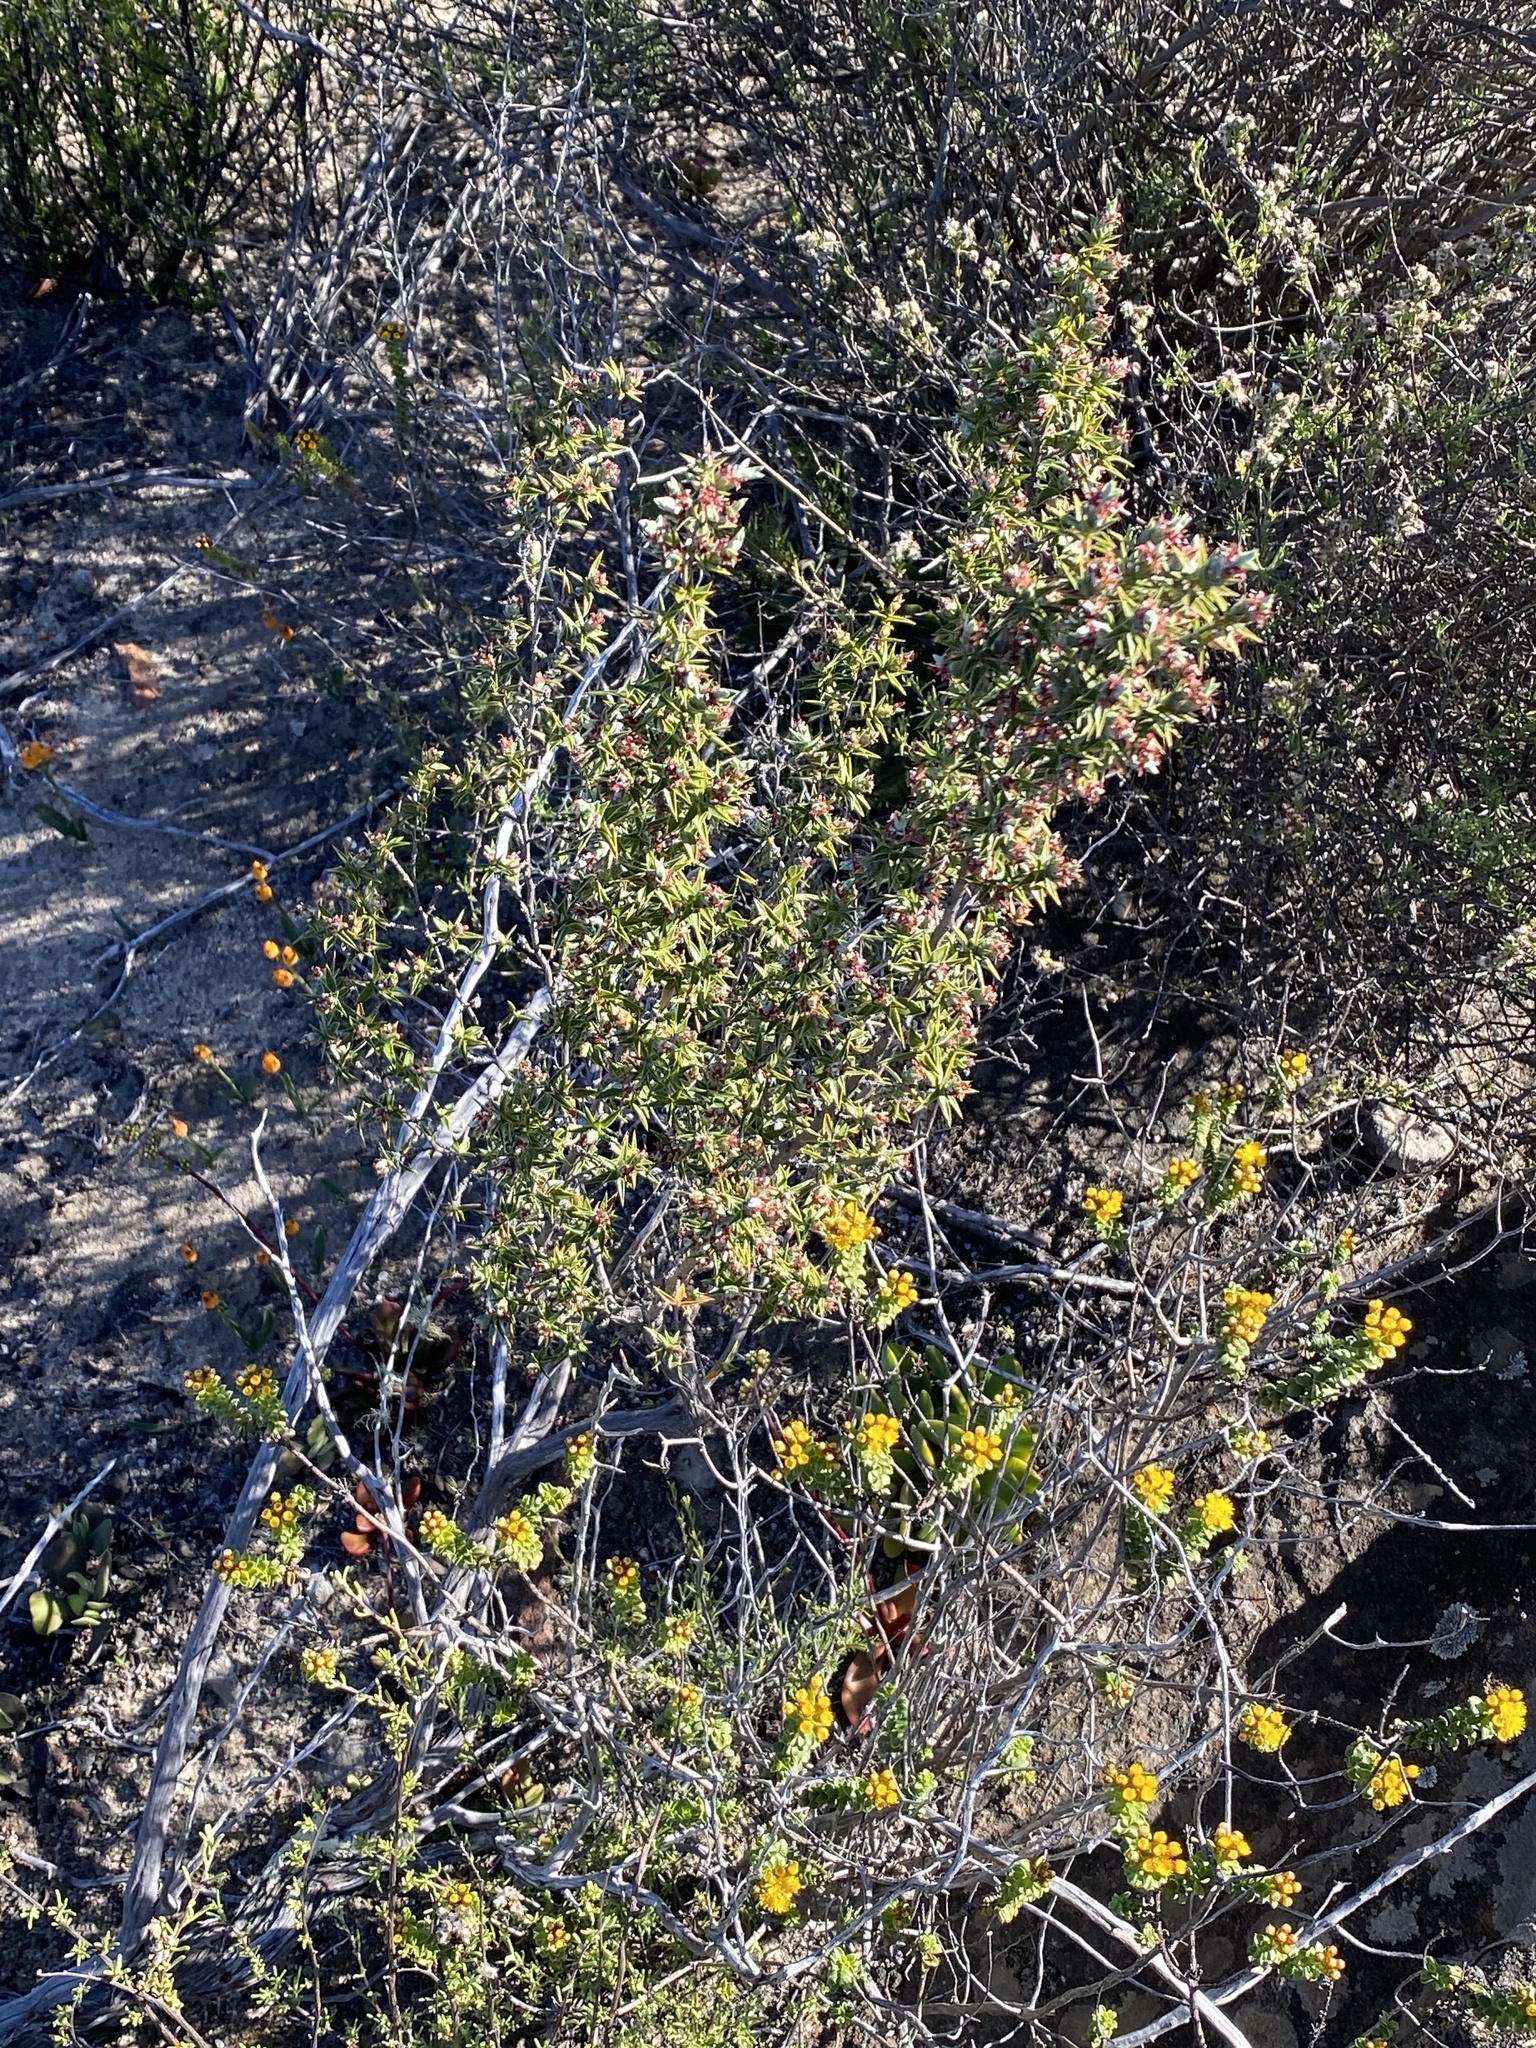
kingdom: Plantae
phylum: Tracheophyta
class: Magnoliopsida
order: Rosales
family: Rosaceae
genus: Cliffortia
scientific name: Cliffortia ruscifolia
